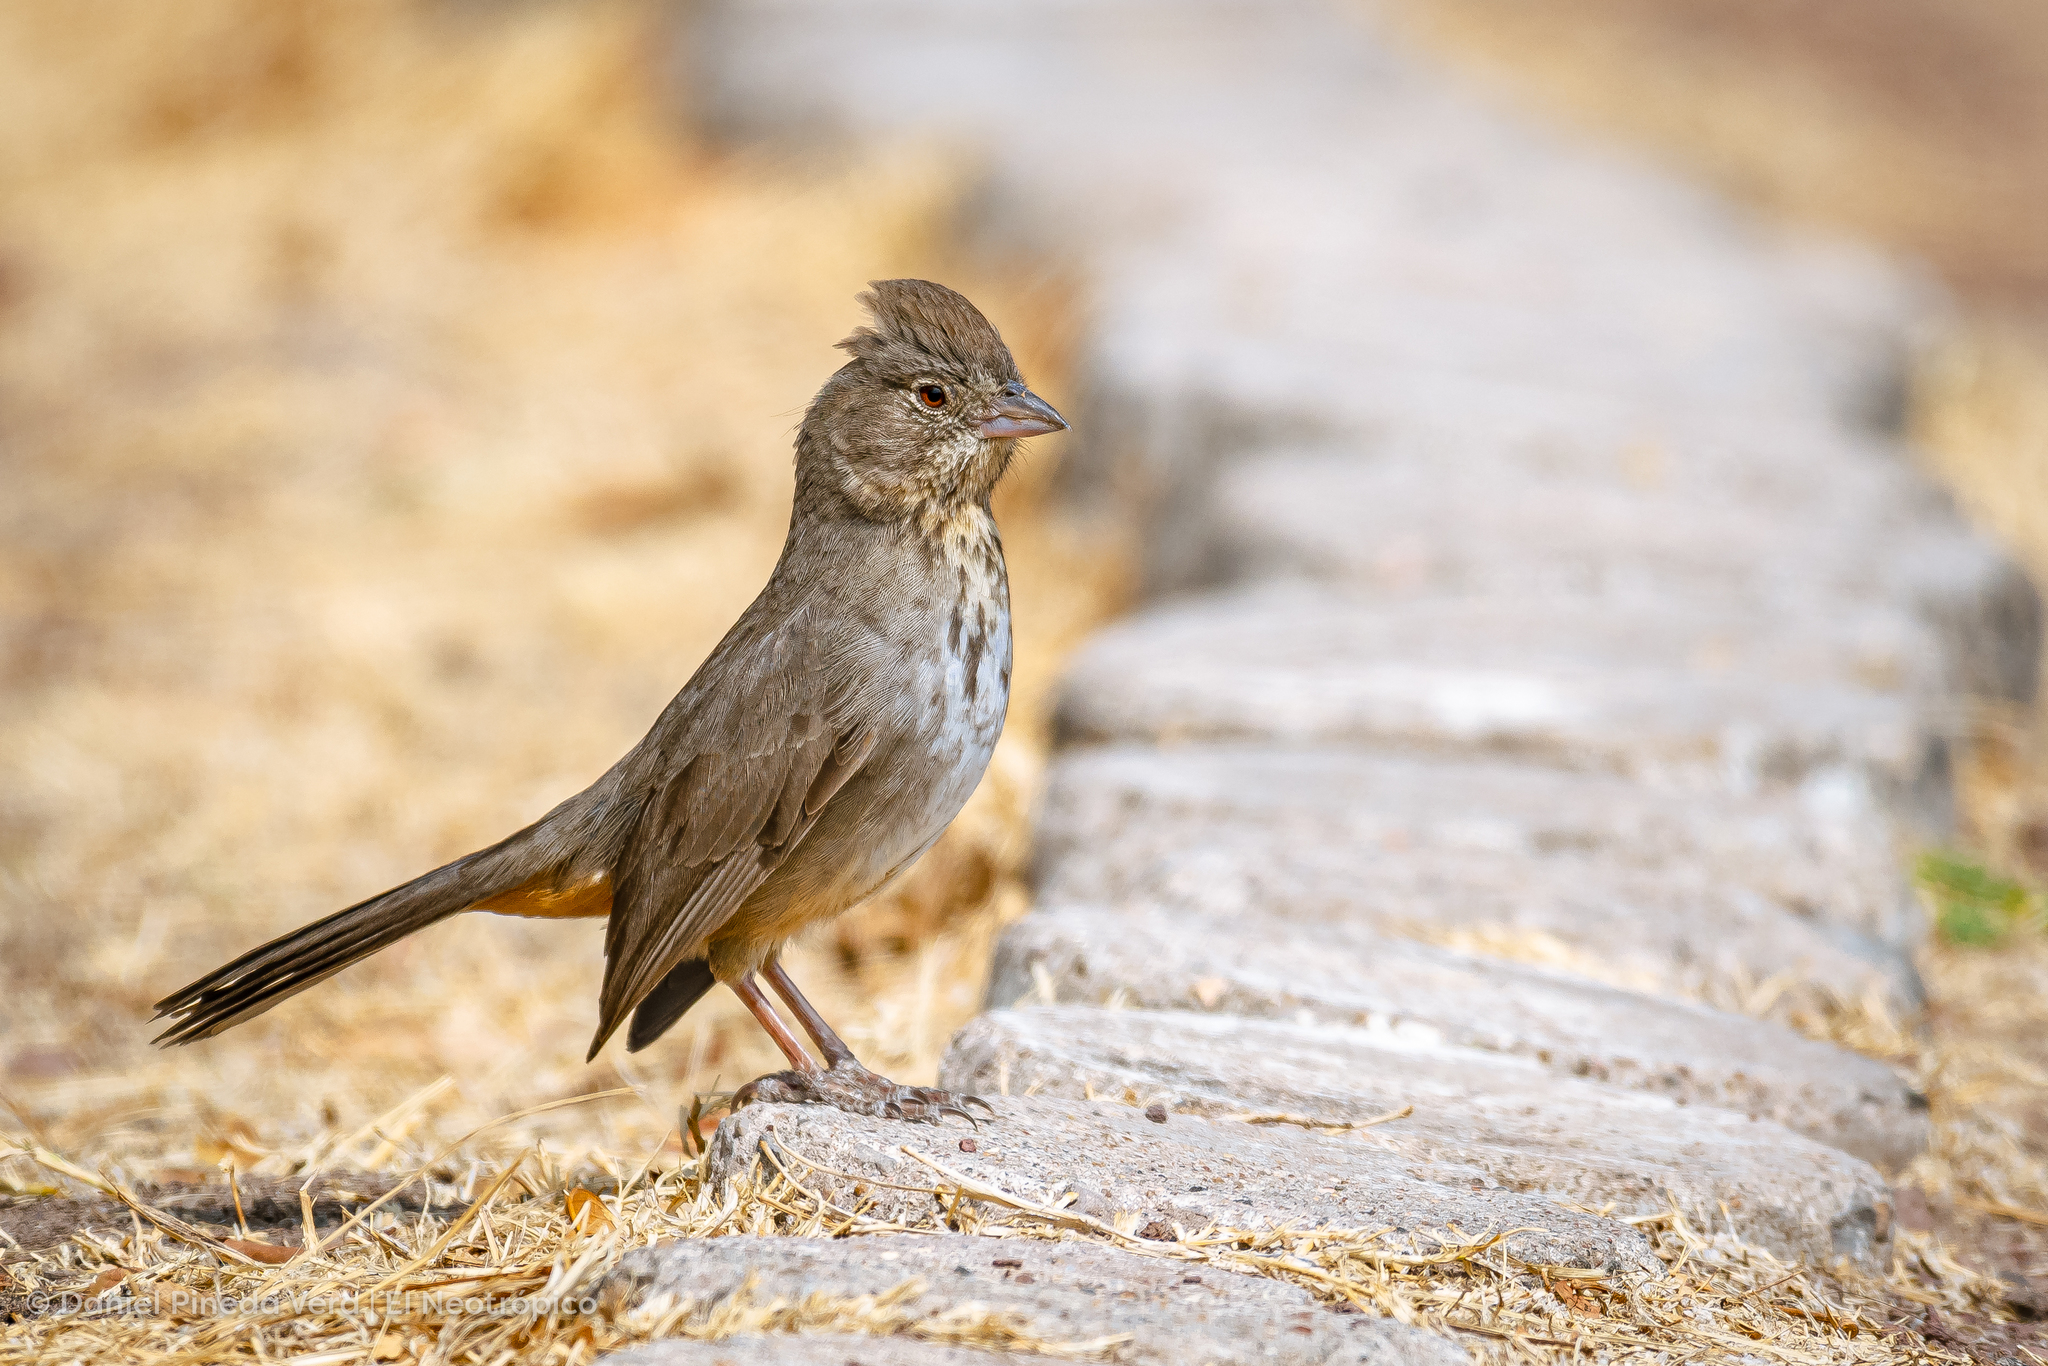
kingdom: Animalia
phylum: Chordata
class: Aves
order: Passeriformes
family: Passerellidae
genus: Melozone
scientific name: Melozone fusca
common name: Canyon towhee
